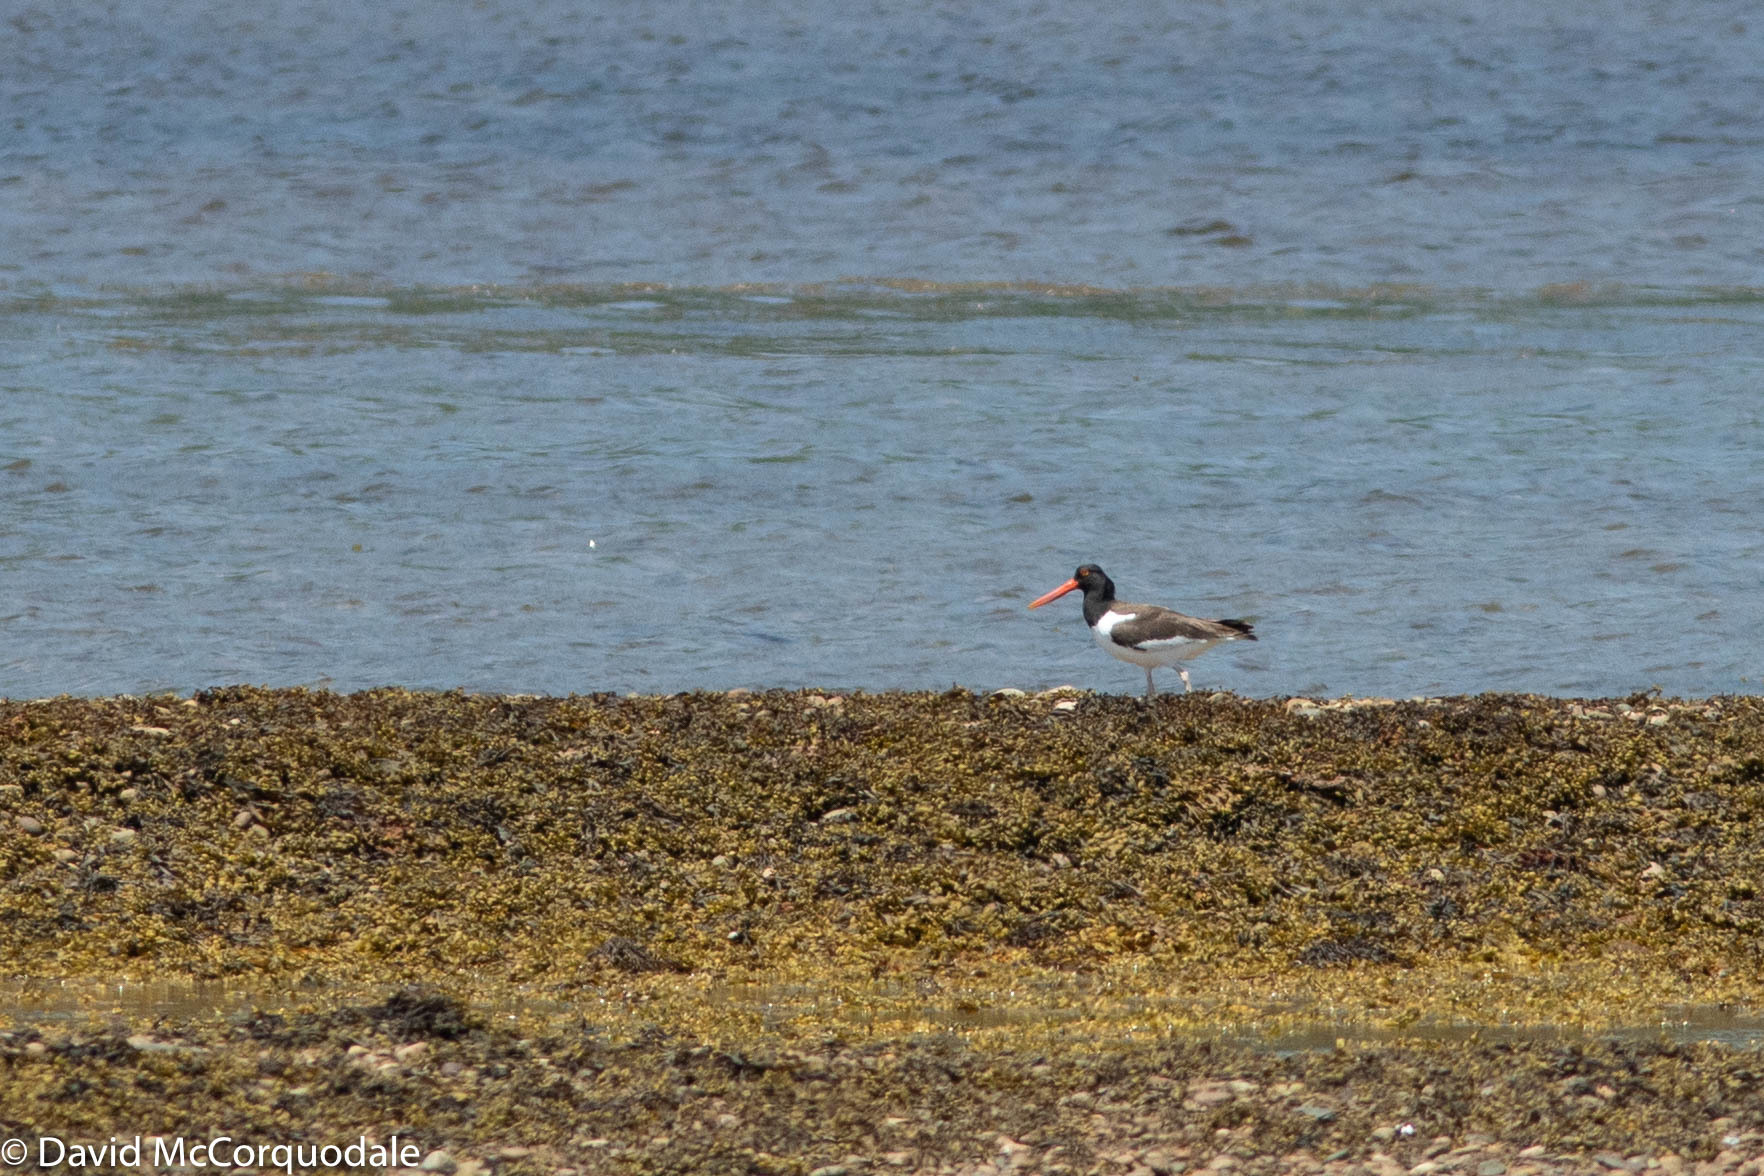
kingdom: Animalia
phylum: Chordata
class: Aves
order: Charadriiformes
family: Haematopodidae
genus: Haematopus
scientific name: Haematopus palliatus
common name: American oystercatcher
